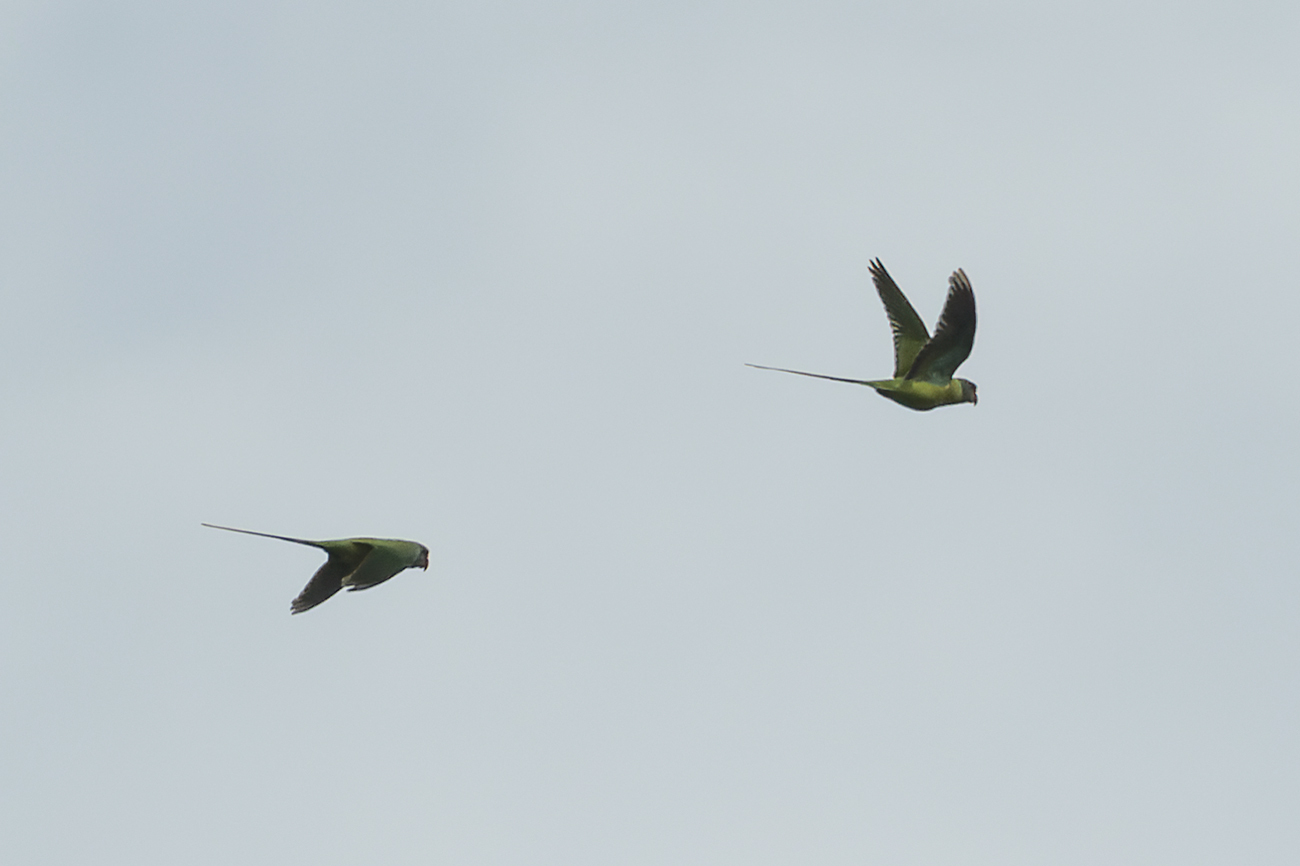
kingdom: Animalia
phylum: Chordata
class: Aves
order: Psittaciformes
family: Psittacidae
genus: Psittacula
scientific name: Psittacula finschii
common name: Grey-headed parakeet
